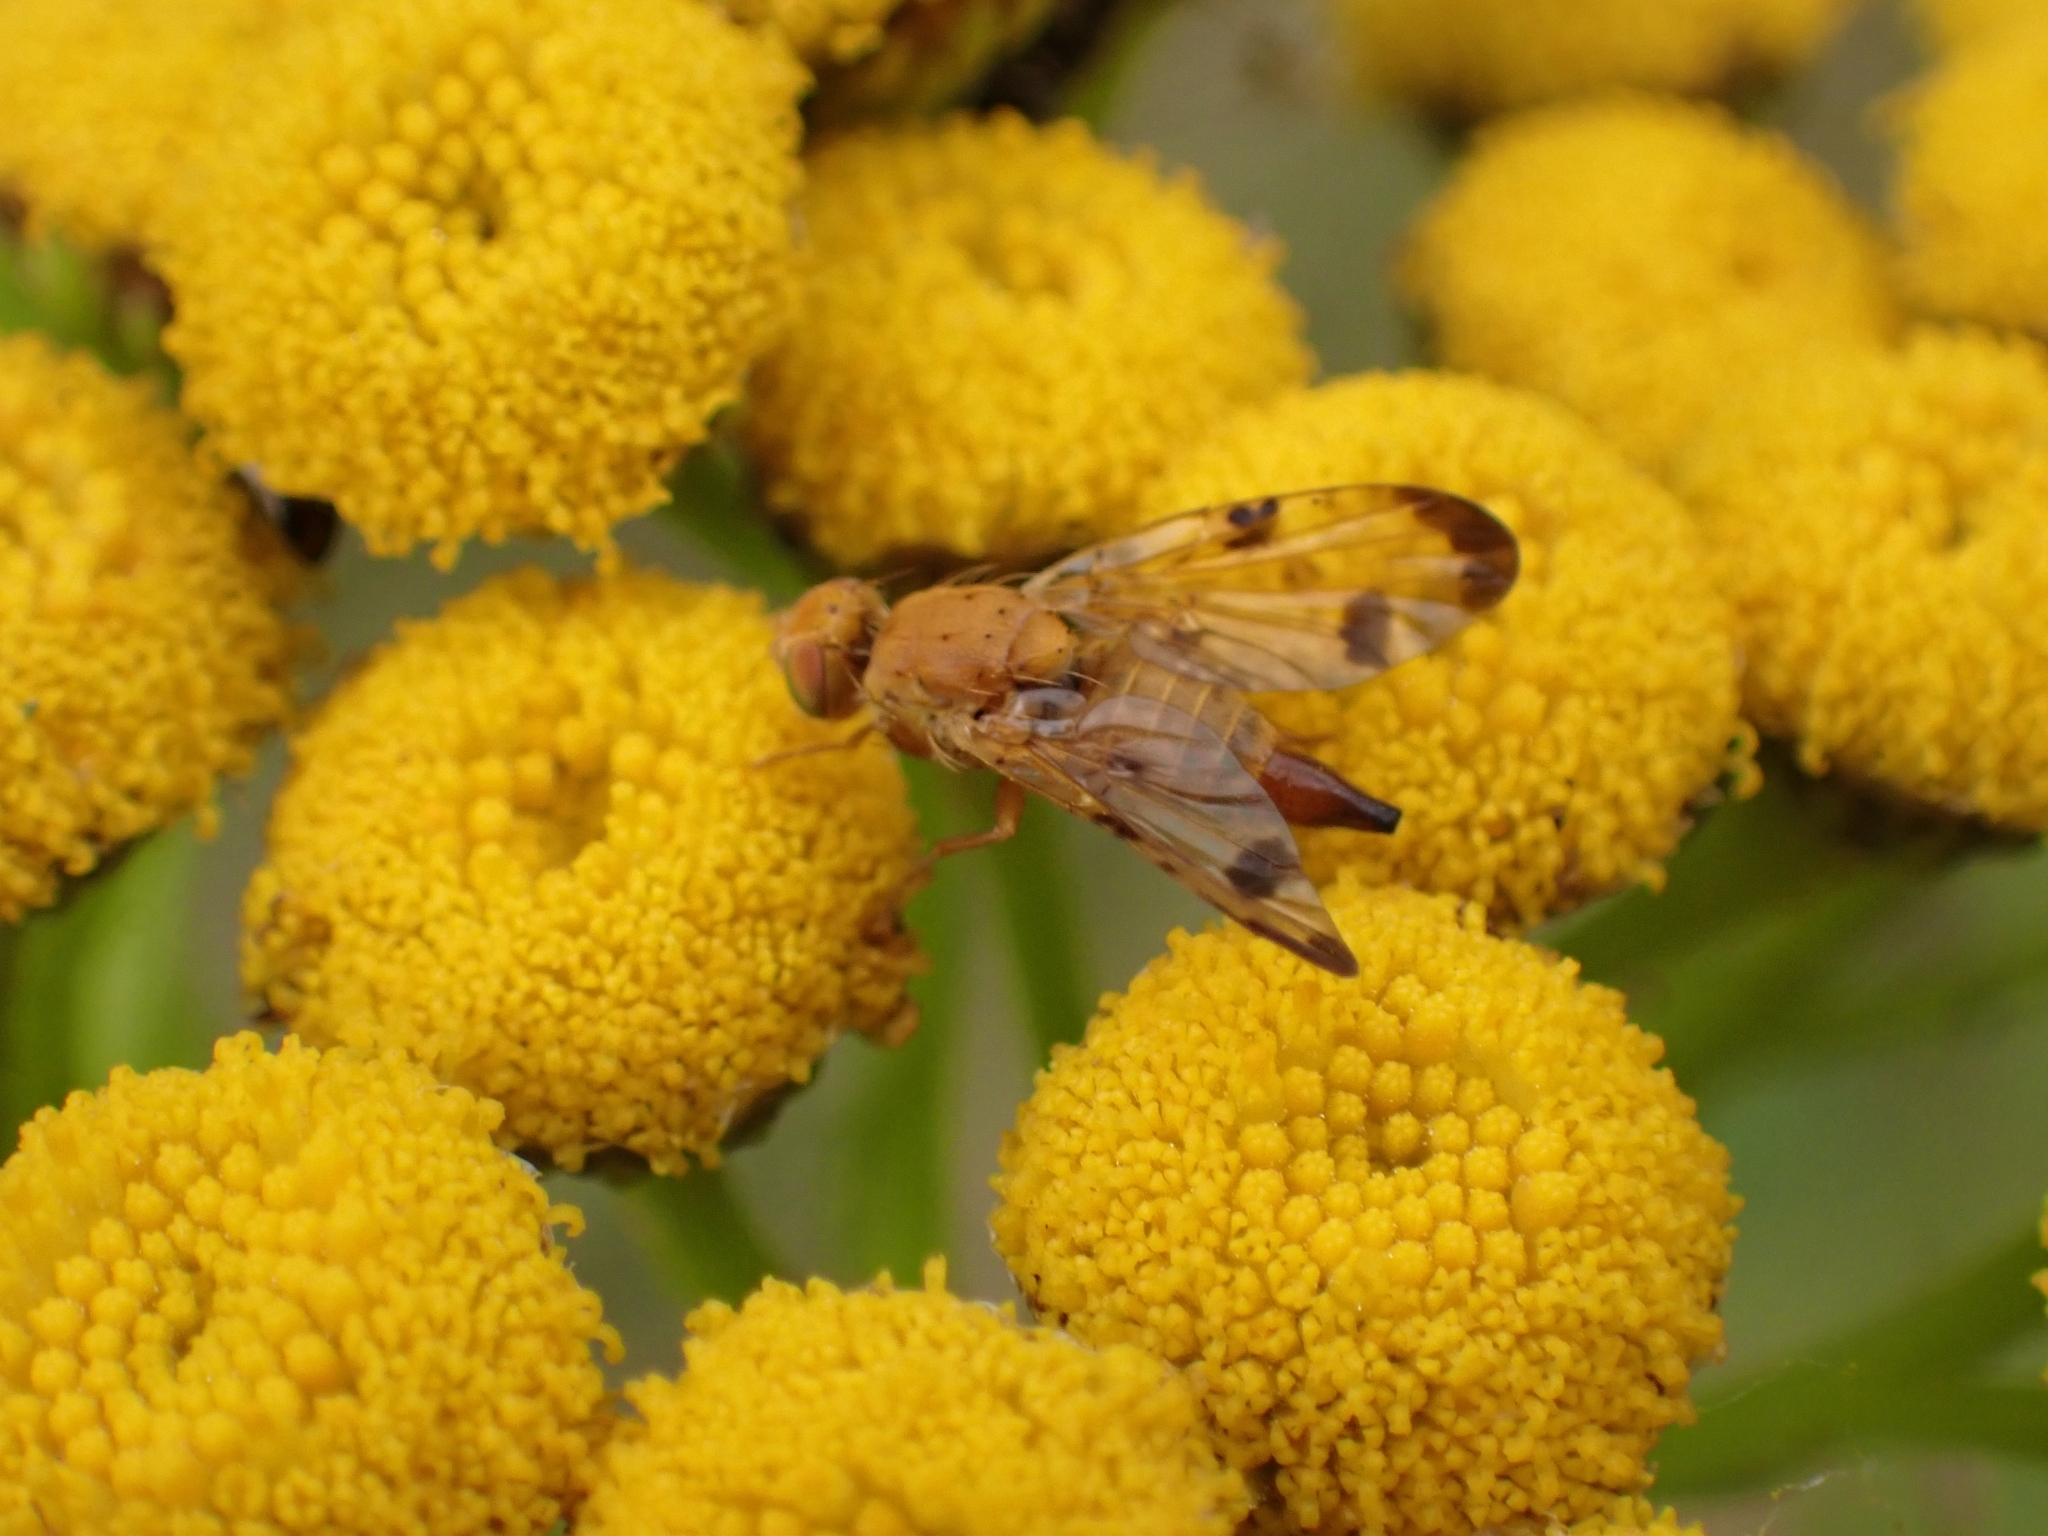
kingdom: Animalia
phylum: Arthropoda
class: Insecta
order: Diptera
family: Tephritidae
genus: Xyphosia
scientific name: Xyphosia miliaria
